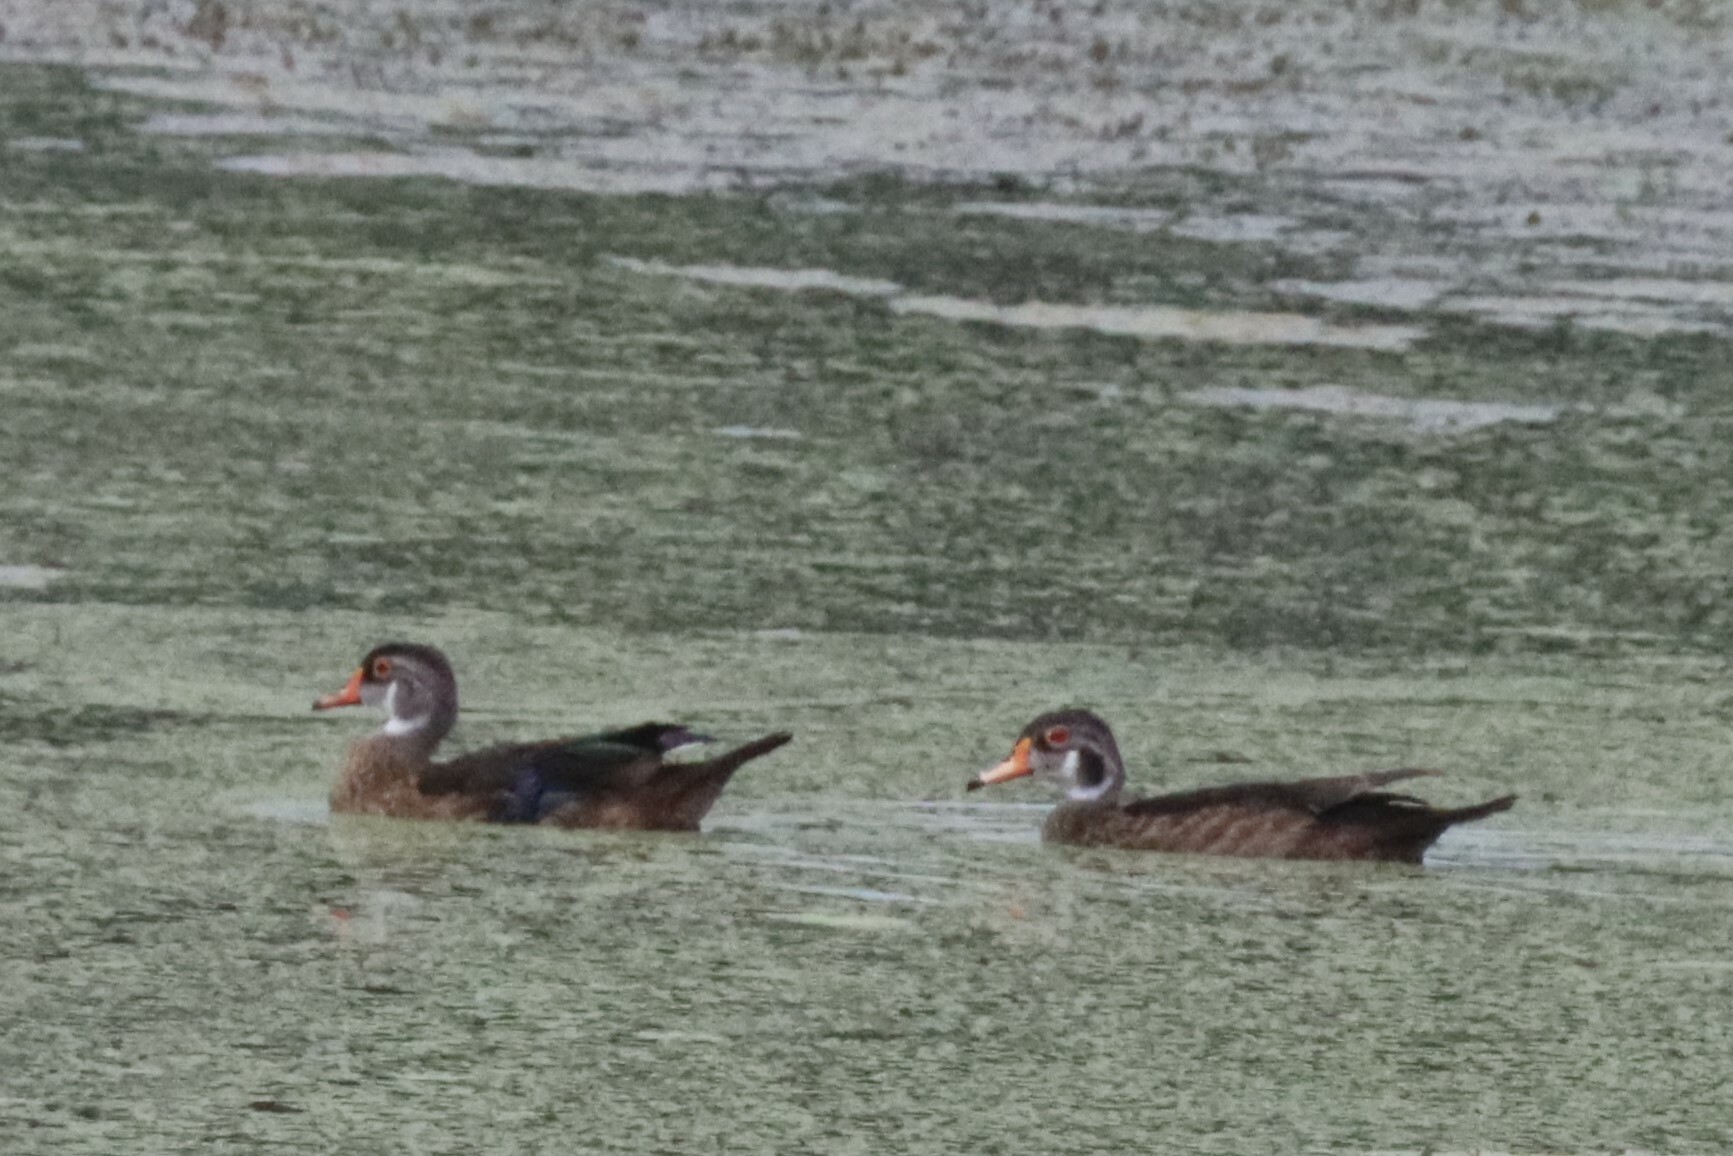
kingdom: Animalia
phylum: Chordata
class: Aves
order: Anseriformes
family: Anatidae
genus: Aix
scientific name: Aix sponsa
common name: Wood duck
